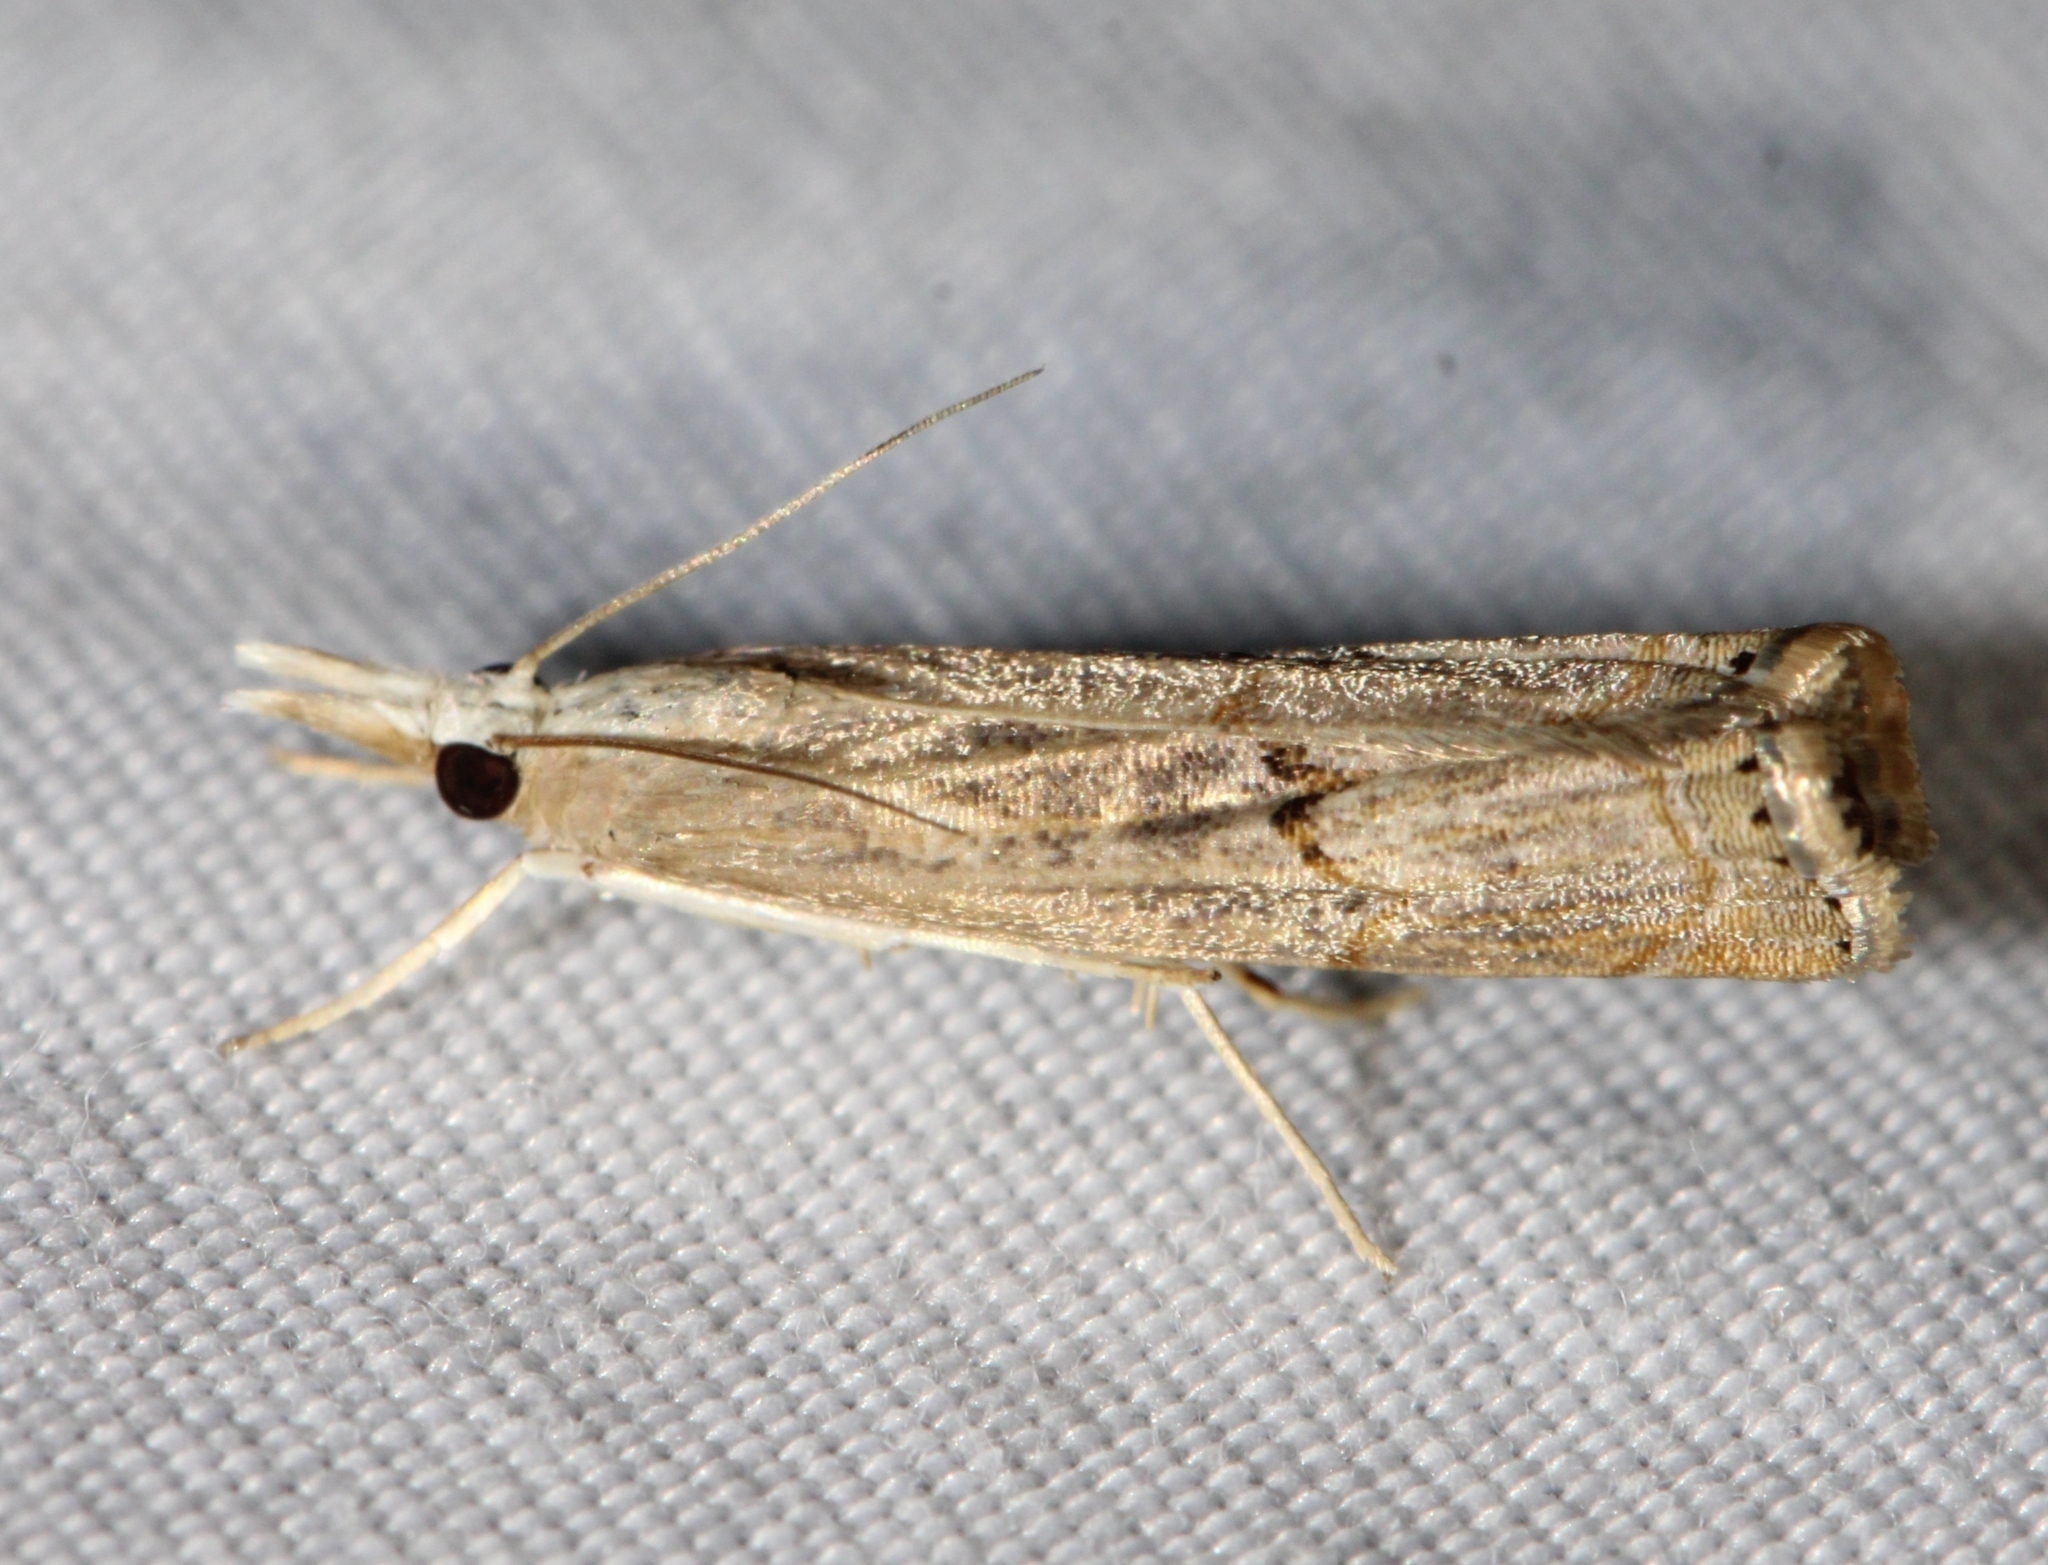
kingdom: Animalia
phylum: Arthropoda
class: Insecta
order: Lepidoptera
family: Crambidae
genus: Parapediasia
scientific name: Parapediasia teterellus
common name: Bluegrass webworm moth
